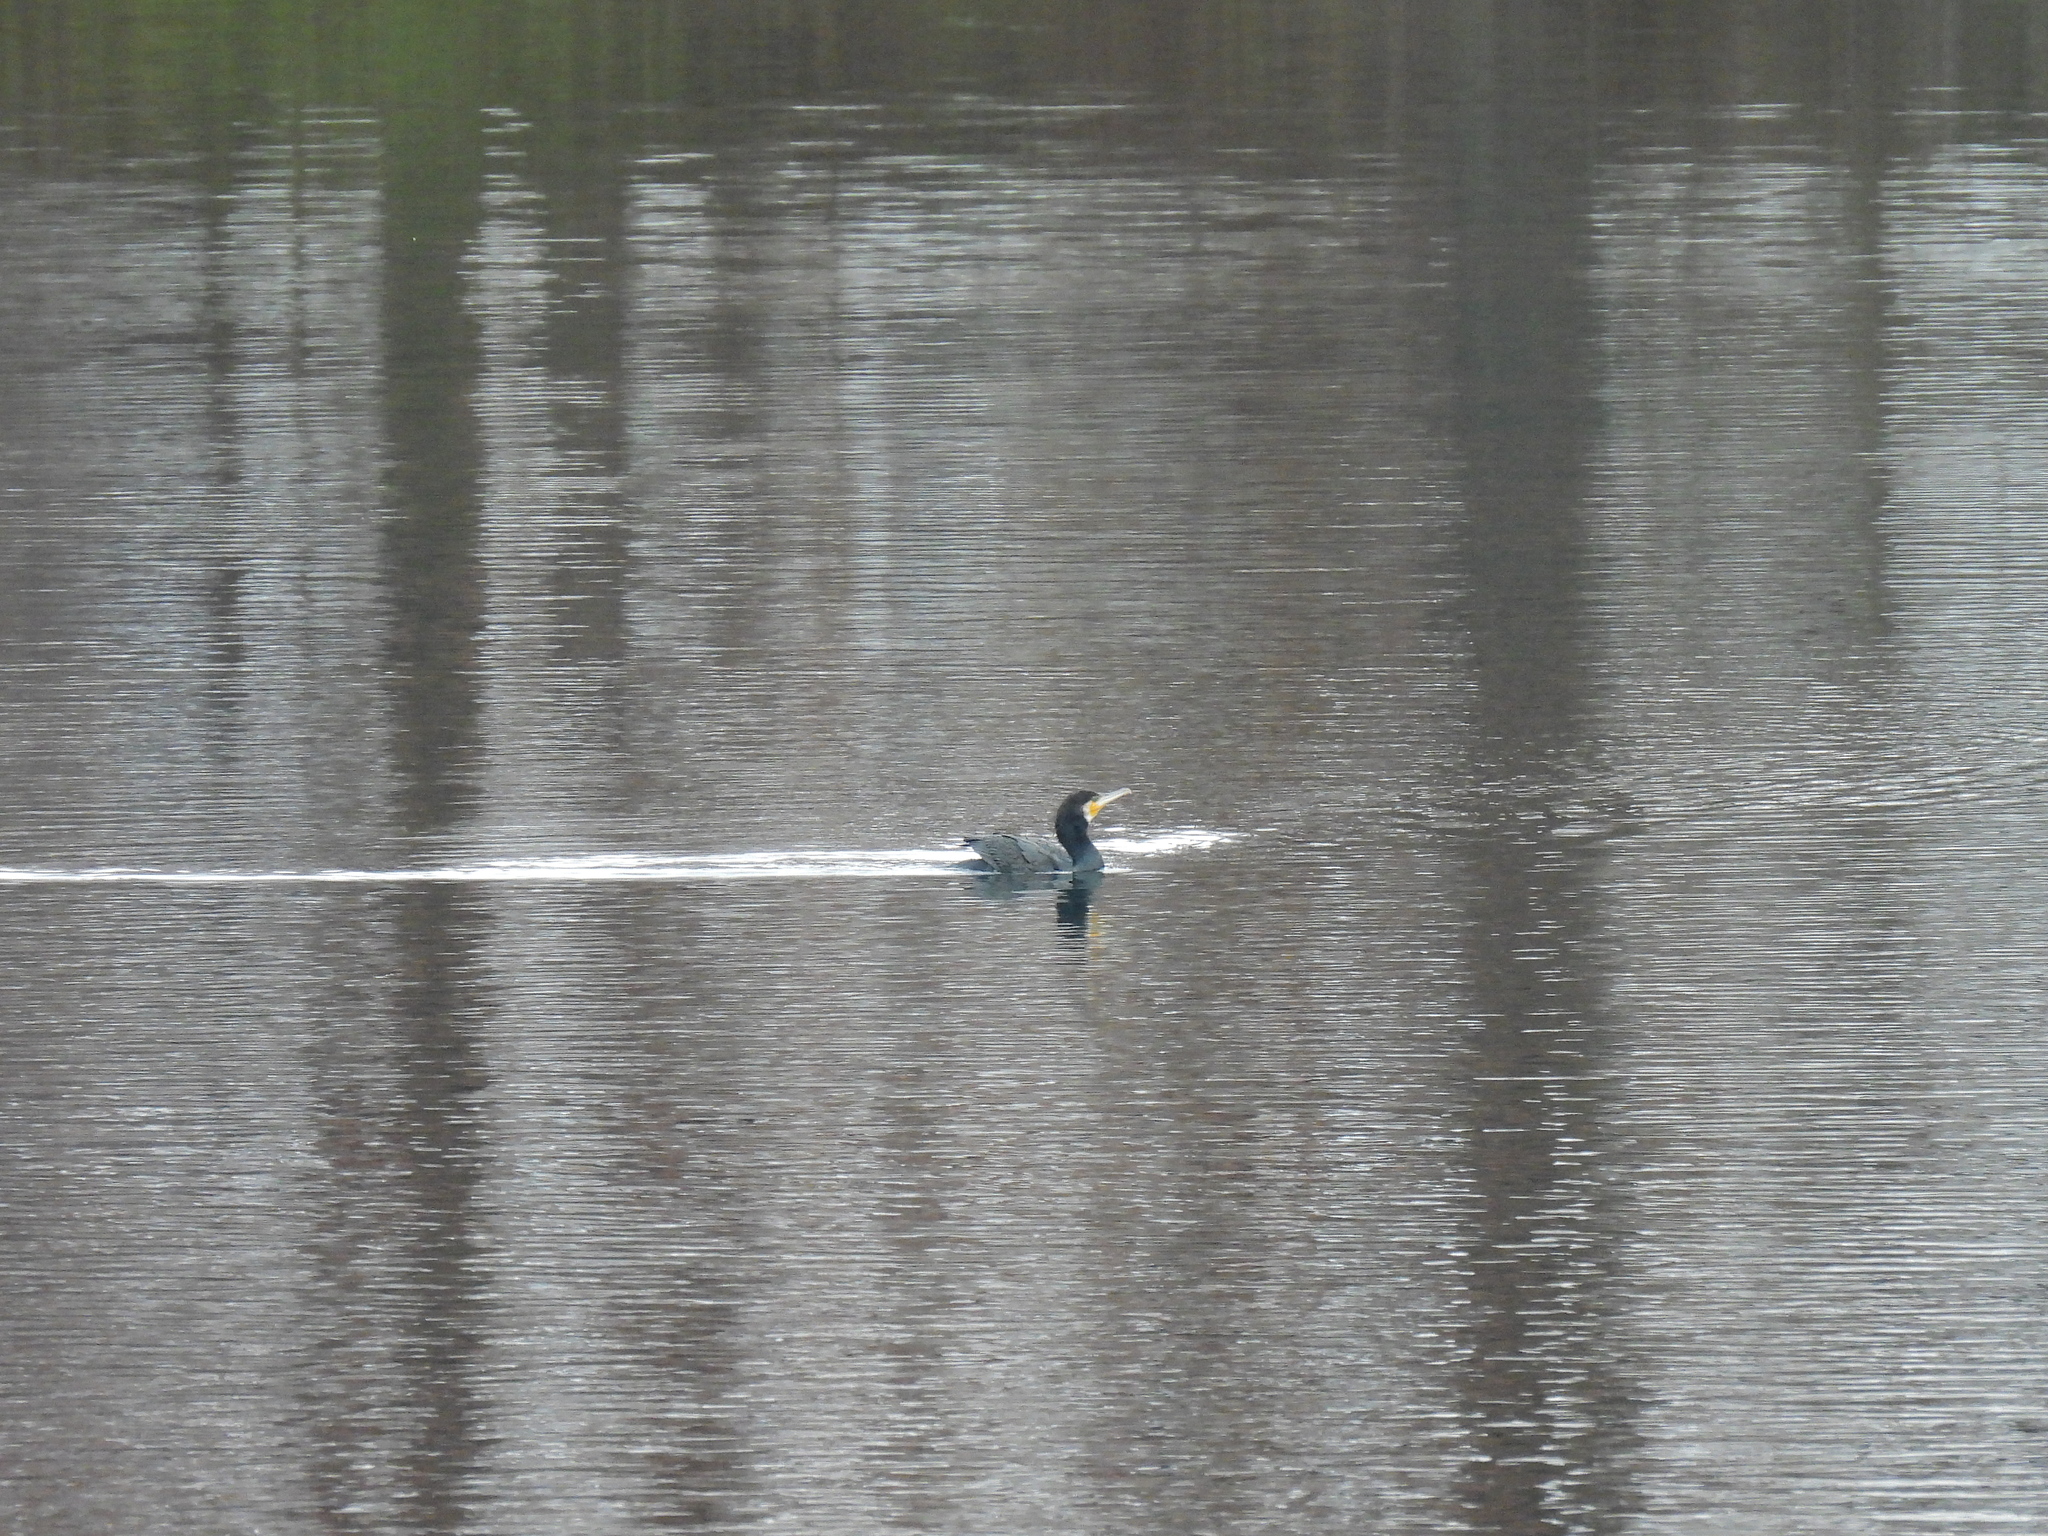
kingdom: Animalia
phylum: Chordata
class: Aves
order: Suliformes
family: Phalacrocoracidae
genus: Phalacrocorax
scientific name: Phalacrocorax carbo
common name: Great cormorant
